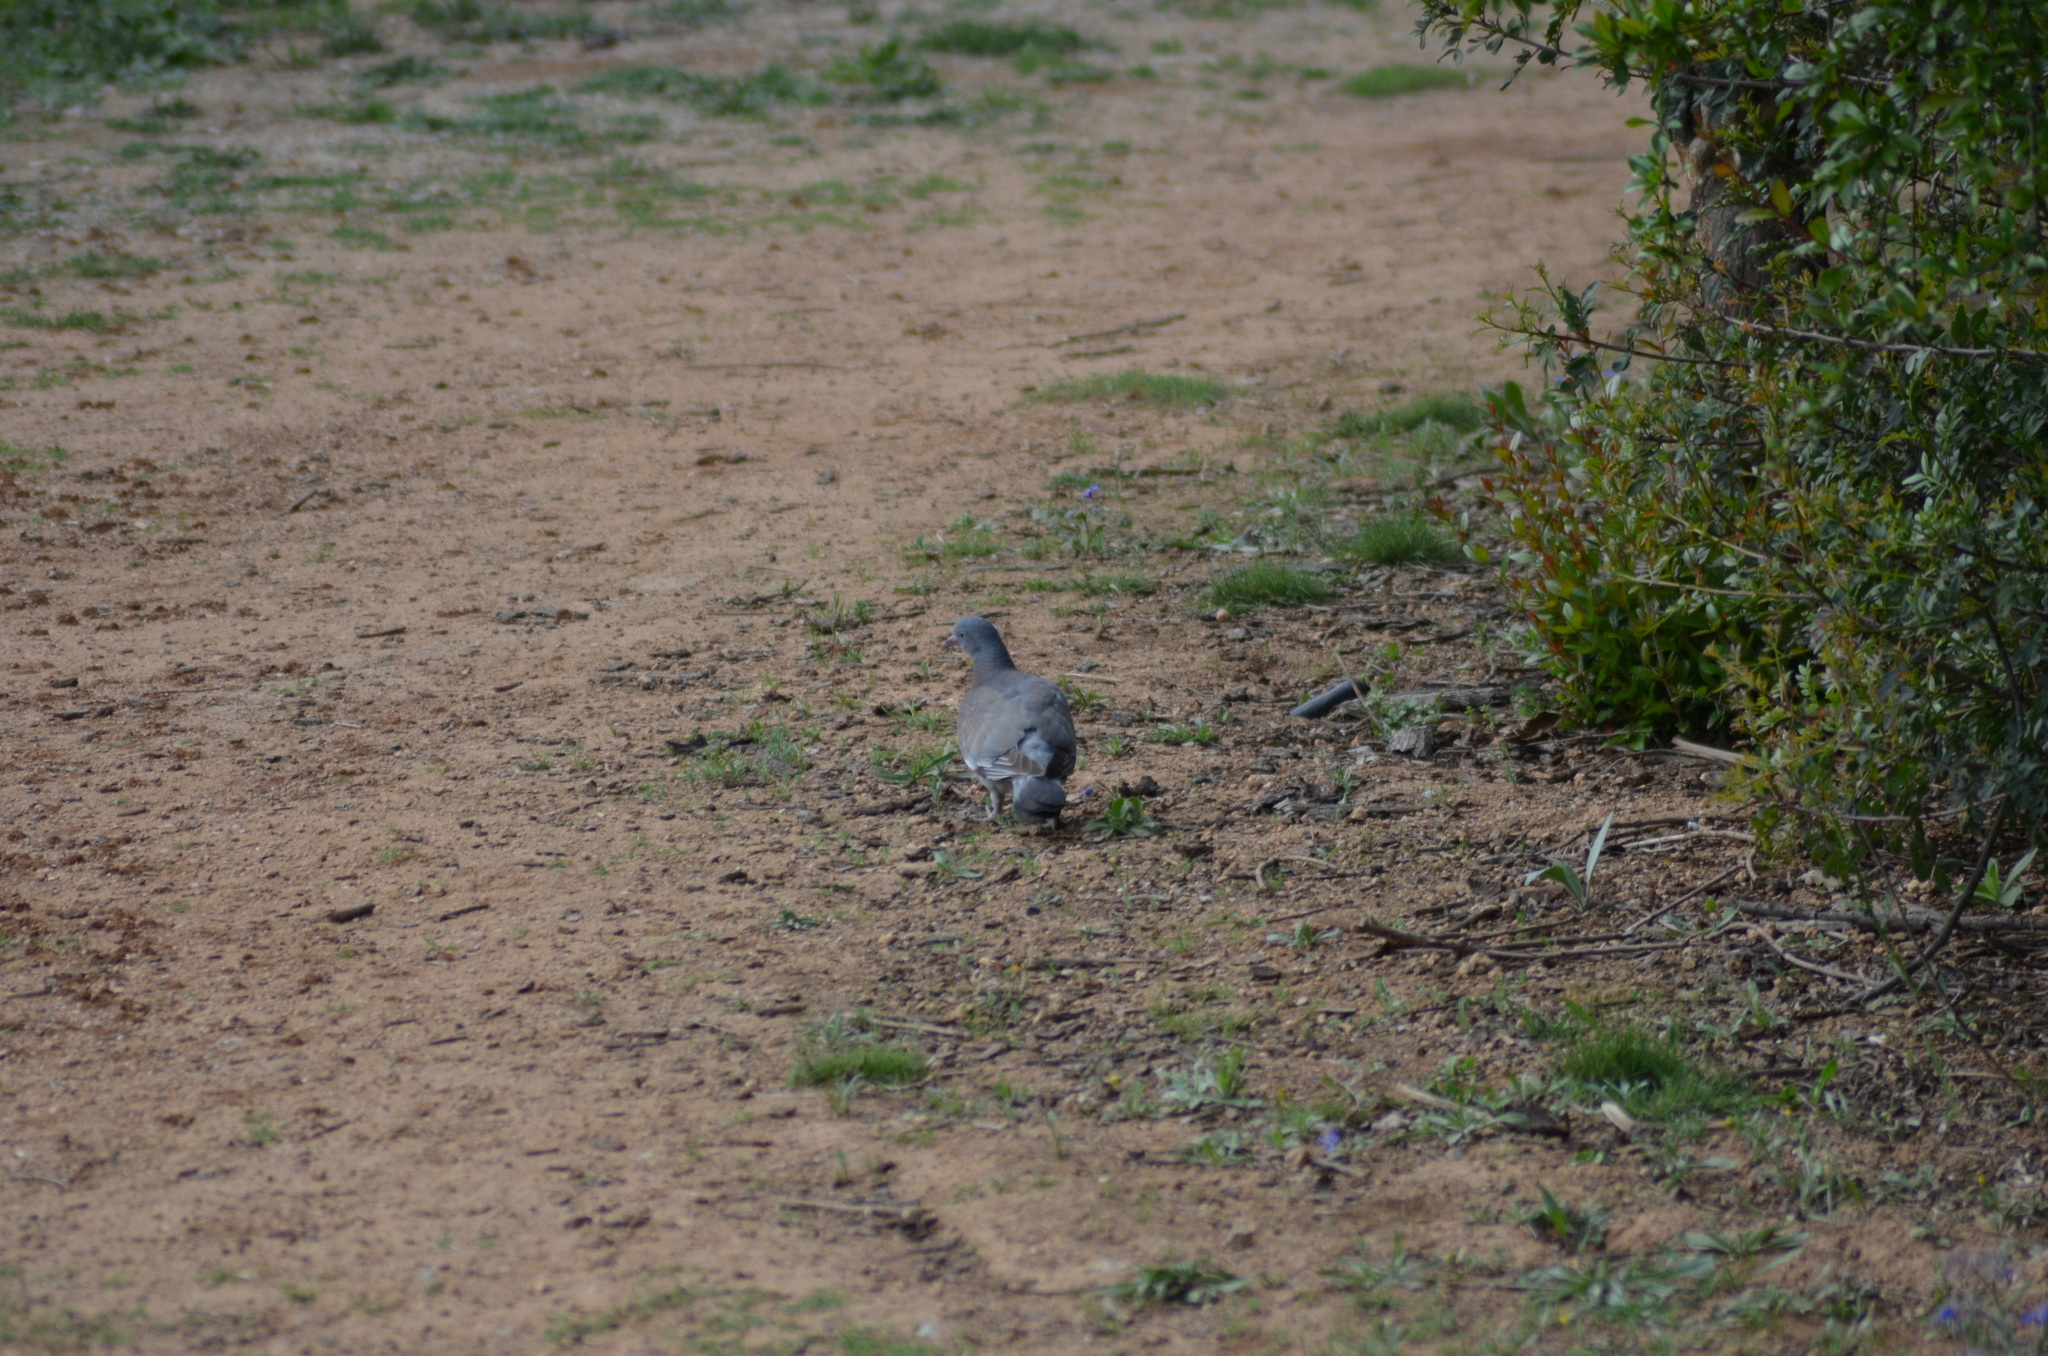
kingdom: Animalia
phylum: Chordata
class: Aves
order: Columbiformes
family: Columbidae
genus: Columba
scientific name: Columba palumbus
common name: Common wood pigeon
